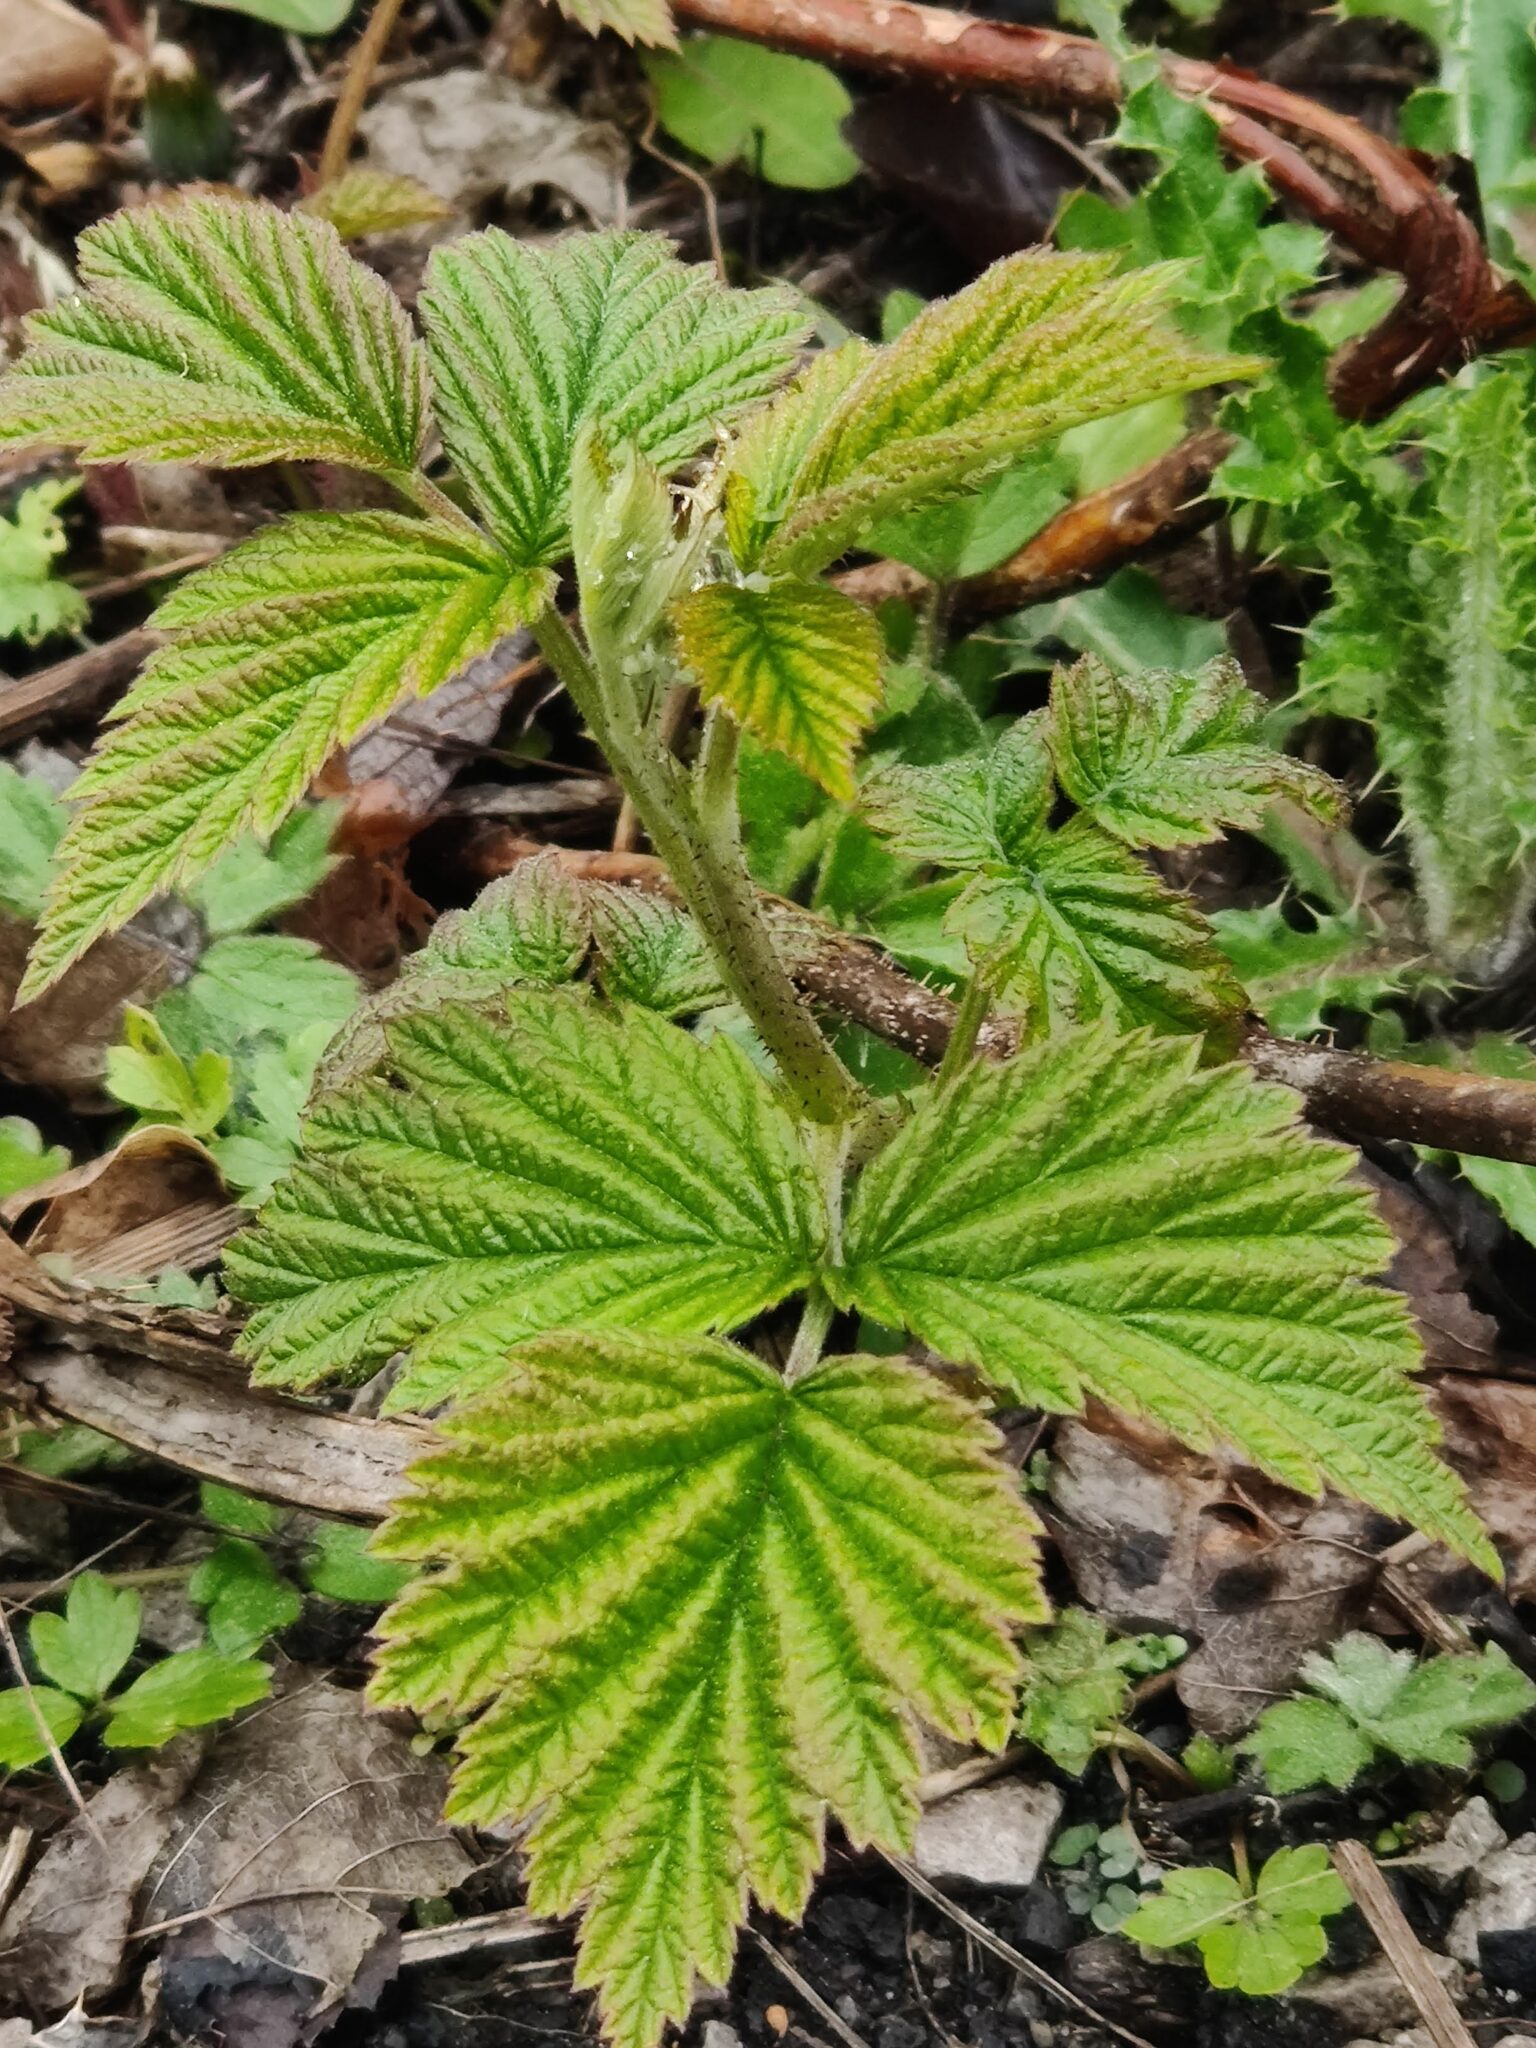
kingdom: Plantae
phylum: Tracheophyta
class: Magnoliopsida
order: Rosales
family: Rosaceae
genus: Rubus
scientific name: Rubus fruticosus
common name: Blackberry, bramble
